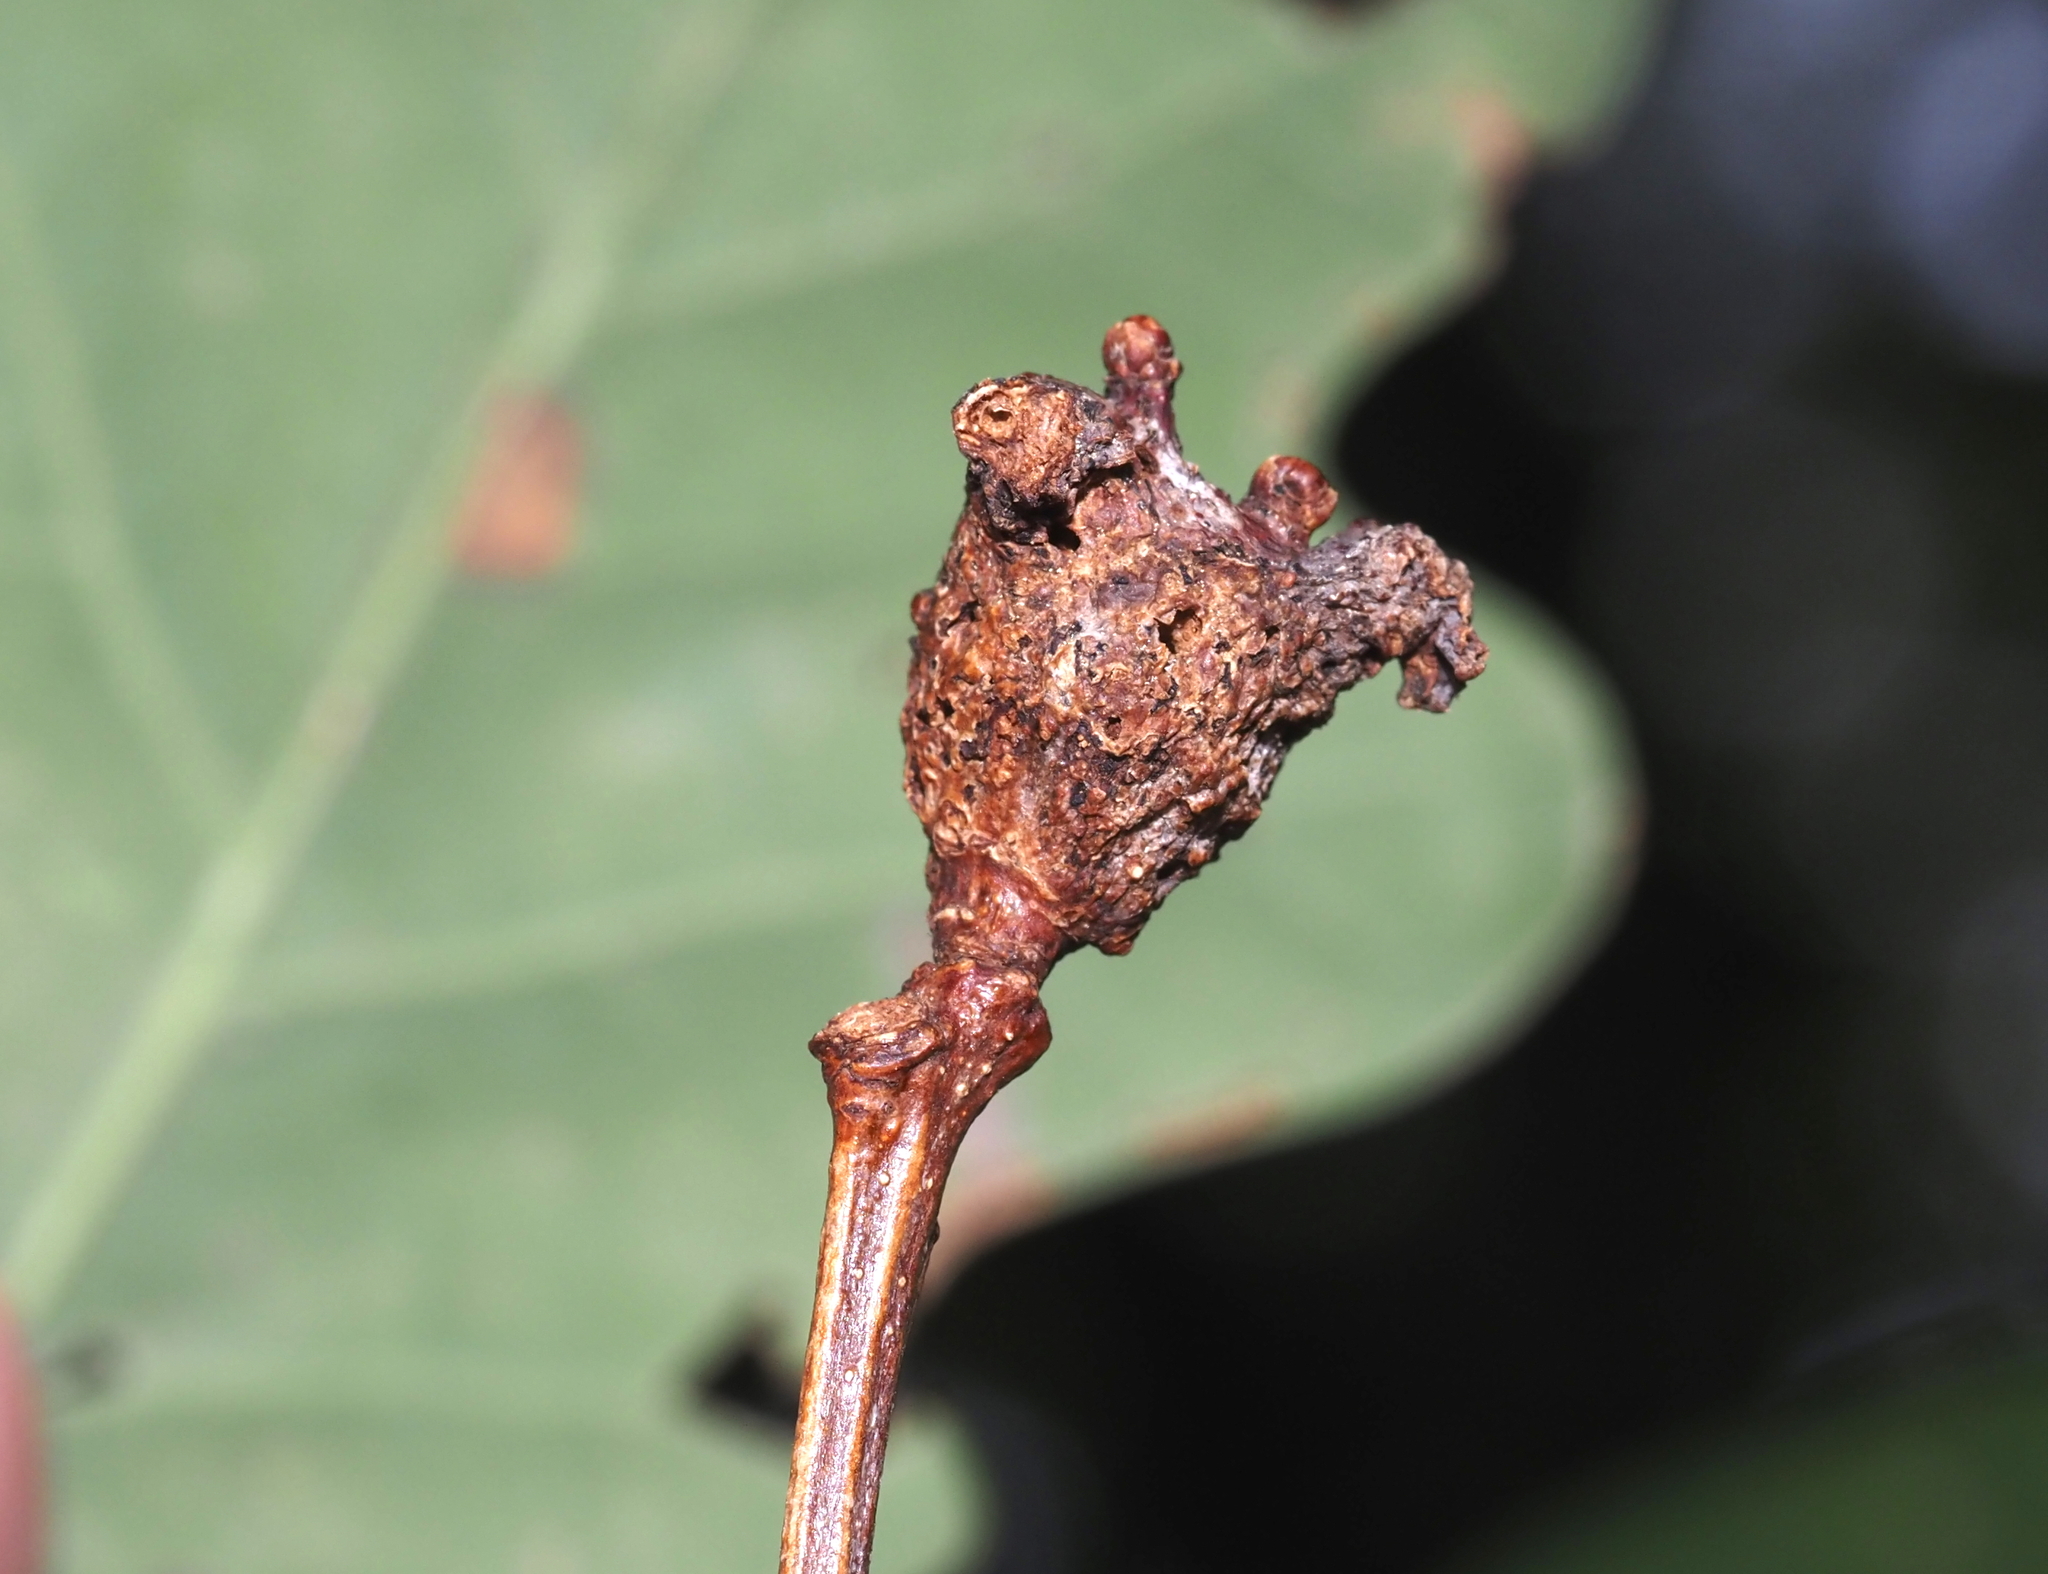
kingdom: Animalia
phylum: Arthropoda
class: Insecta
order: Hymenoptera
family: Cynipidae
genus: Neuroterus
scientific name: Neuroterus quercusbaccarum
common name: Common spangle gall
